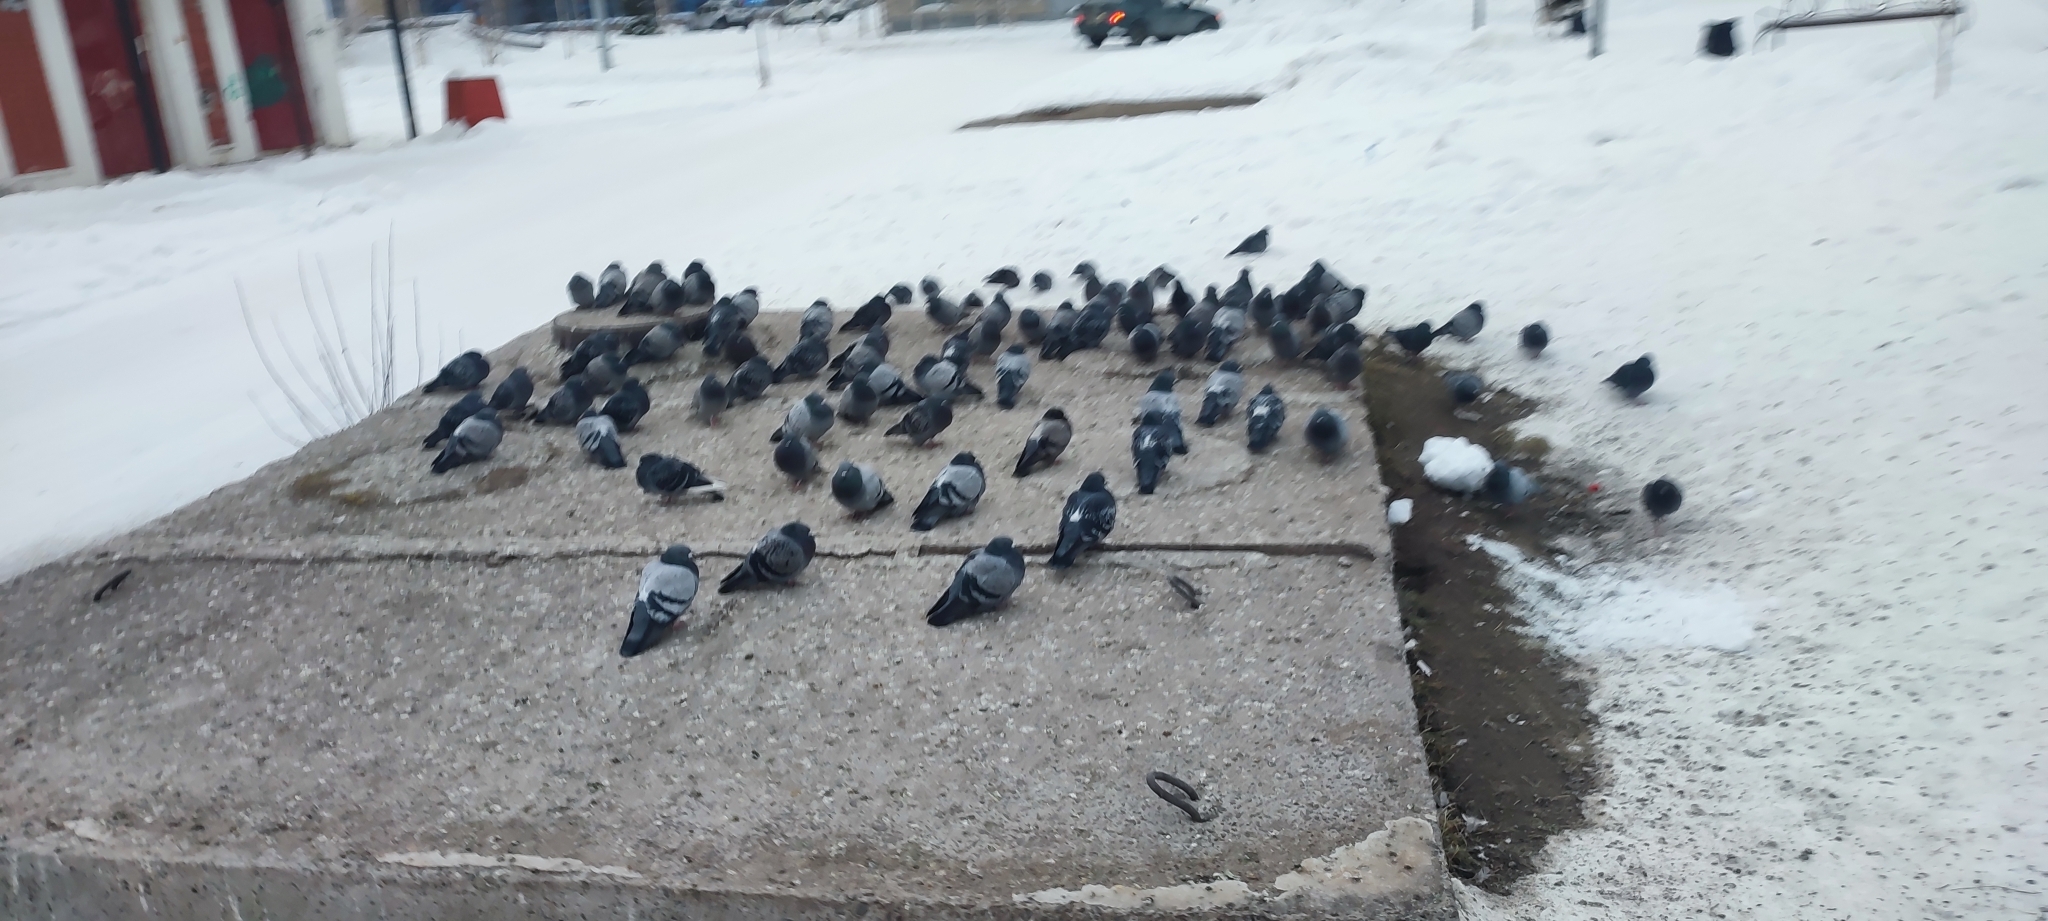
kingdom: Animalia
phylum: Chordata
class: Aves
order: Columbiformes
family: Columbidae
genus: Columba
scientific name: Columba livia
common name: Rock pigeon
